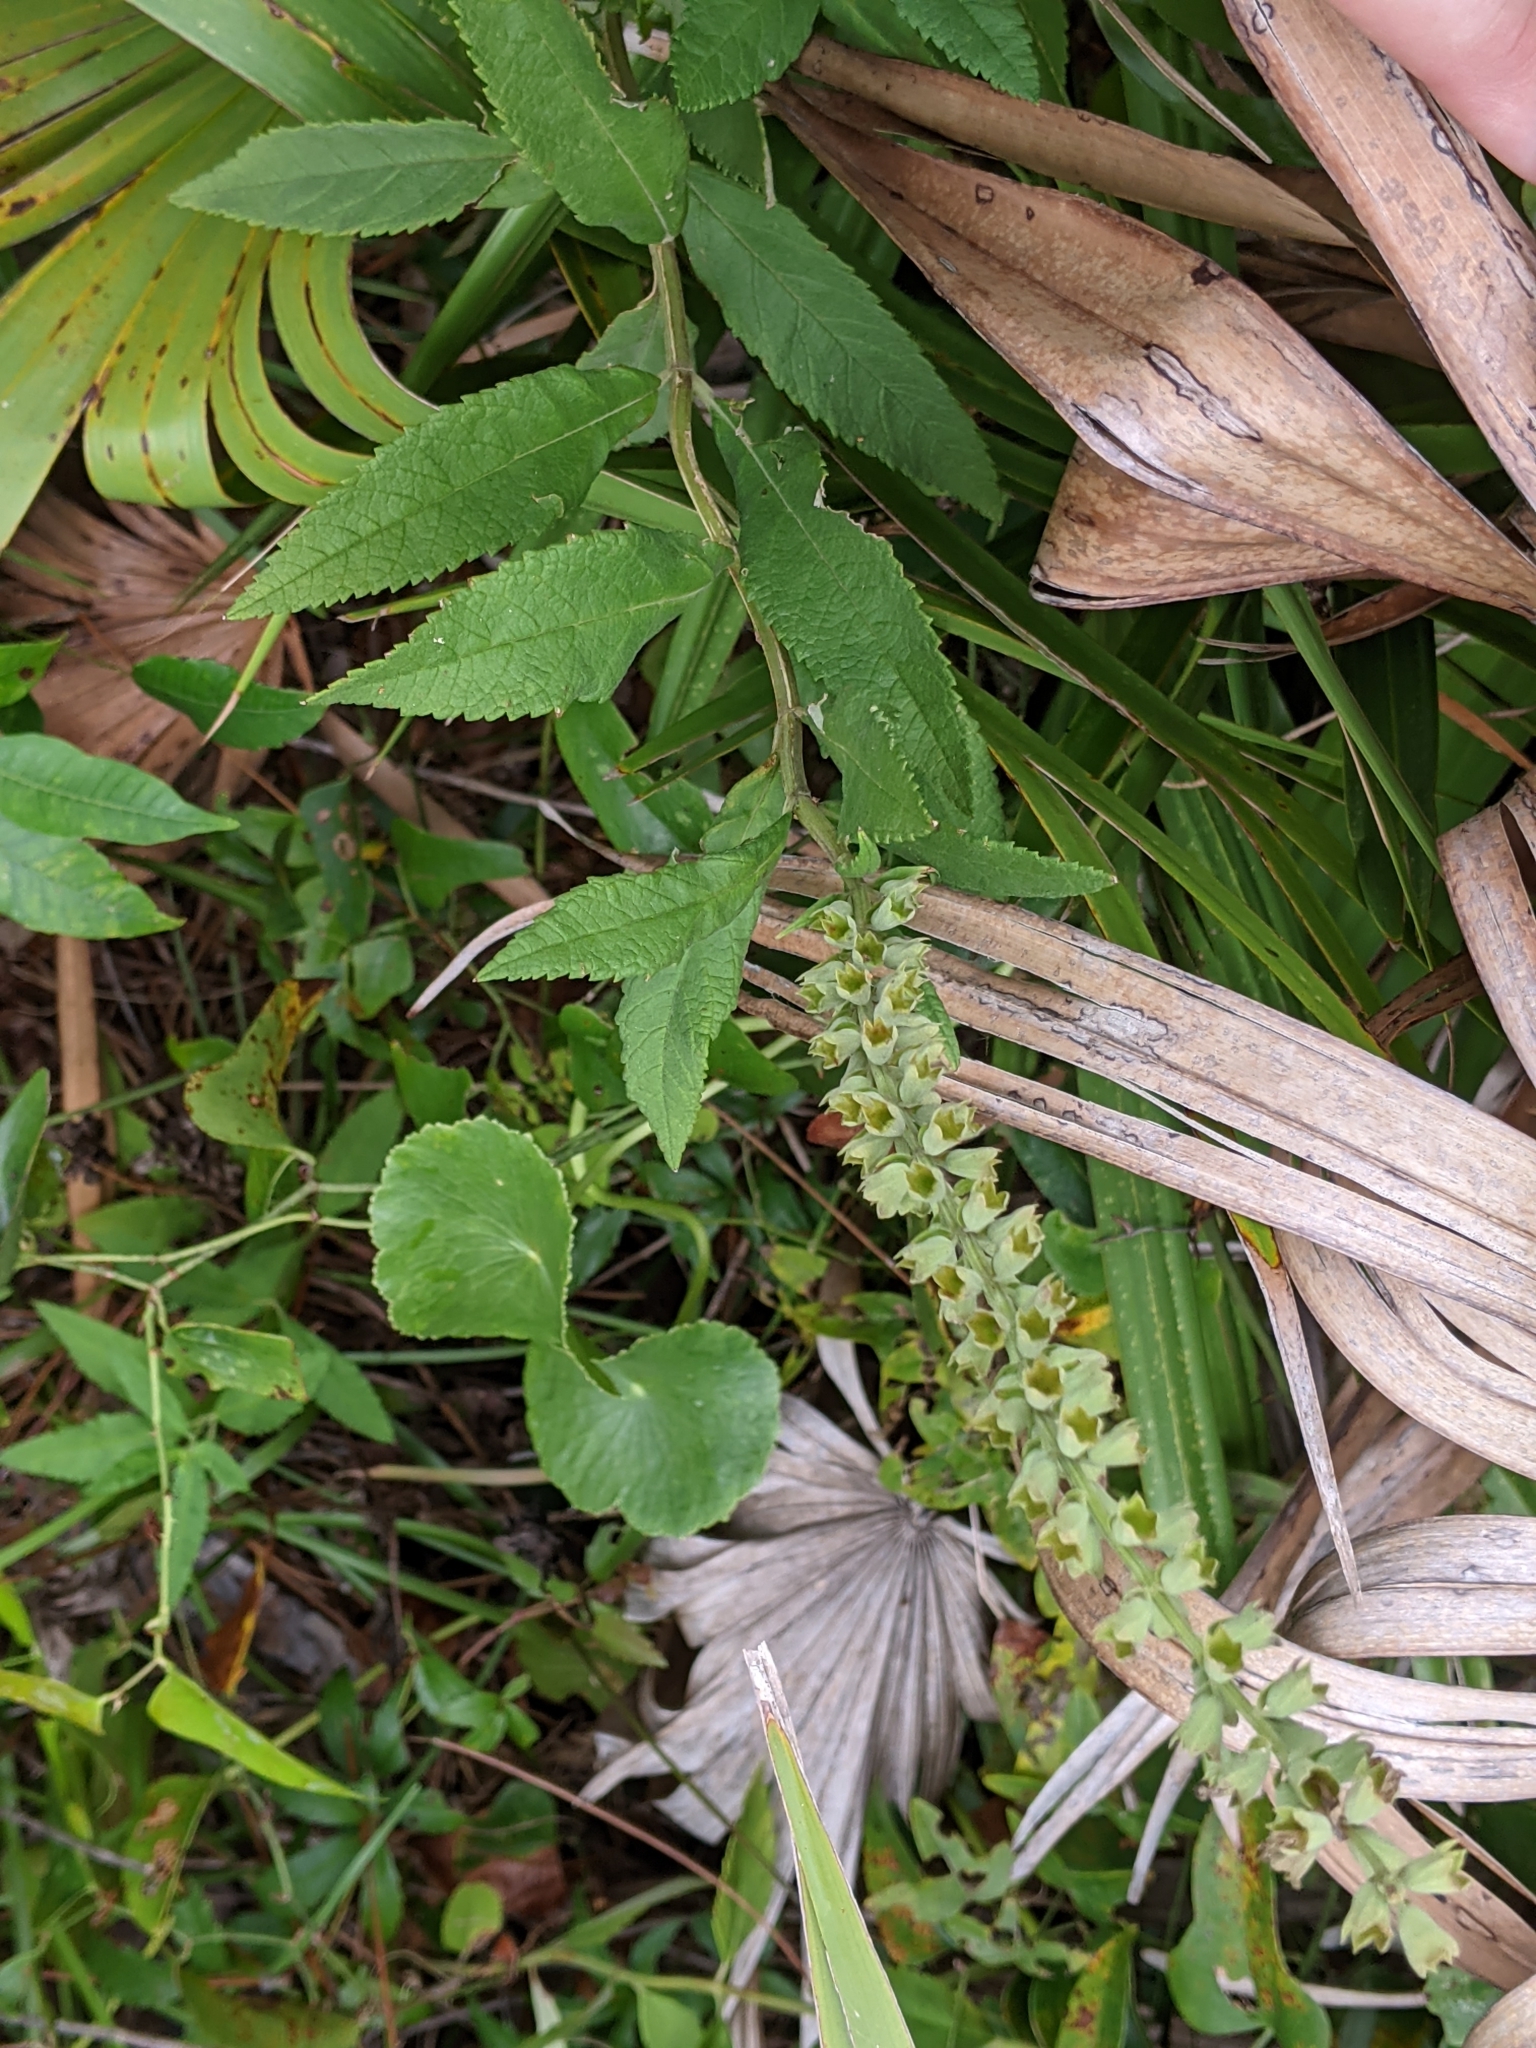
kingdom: Plantae
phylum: Tracheophyta
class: Magnoliopsida
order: Lamiales
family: Lamiaceae
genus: Teucrium
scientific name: Teucrium canadense
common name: American germander
